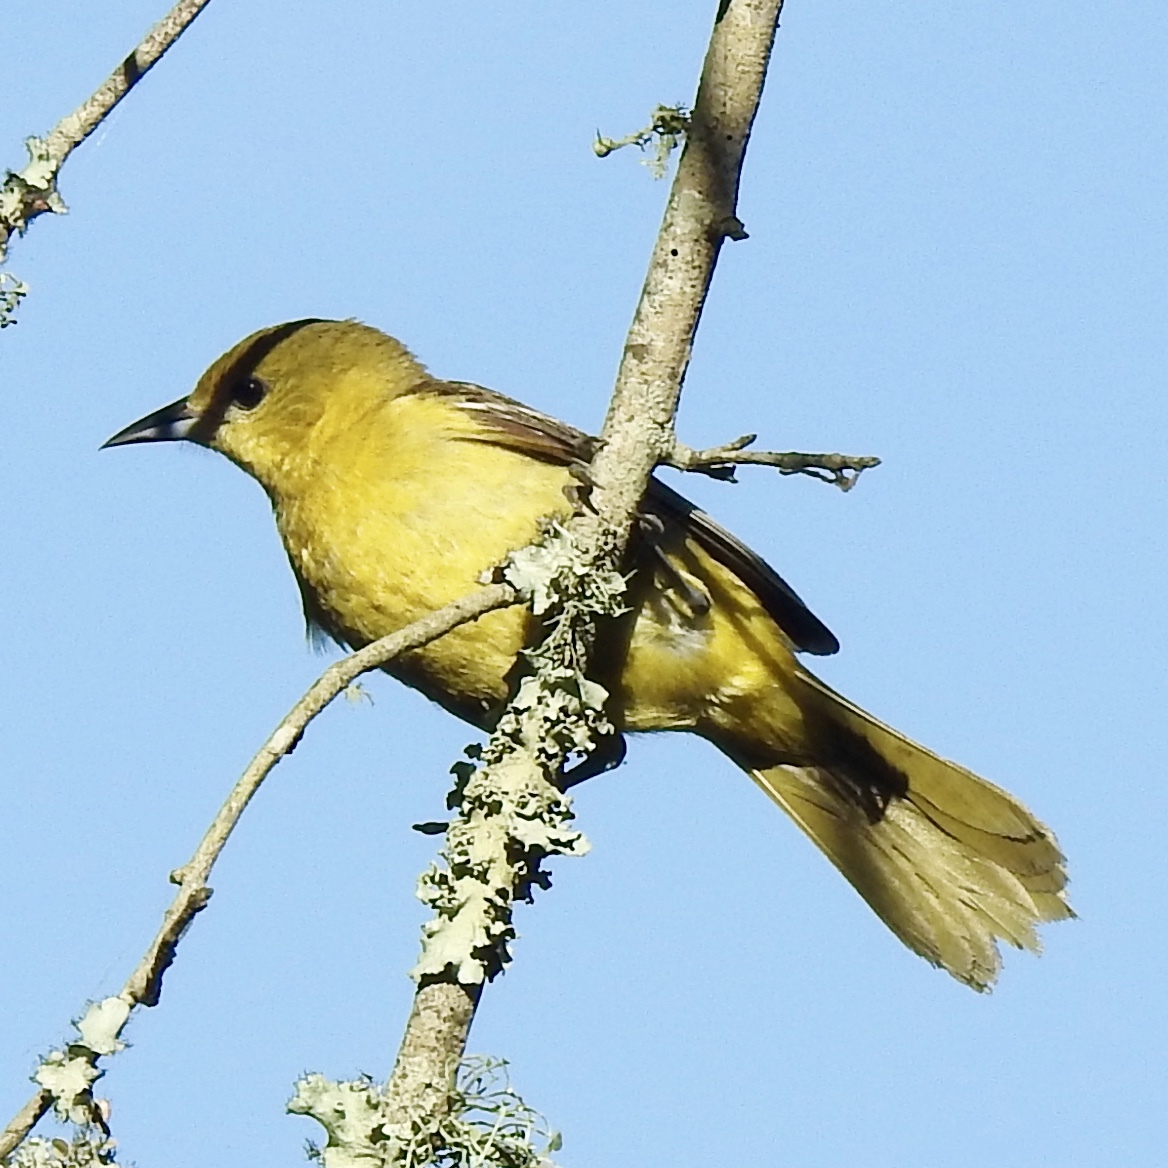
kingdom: Animalia
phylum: Chordata
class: Aves
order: Passeriformes
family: Icteridae
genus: Icterus
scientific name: Icterus spurius
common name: Orchard oriole
